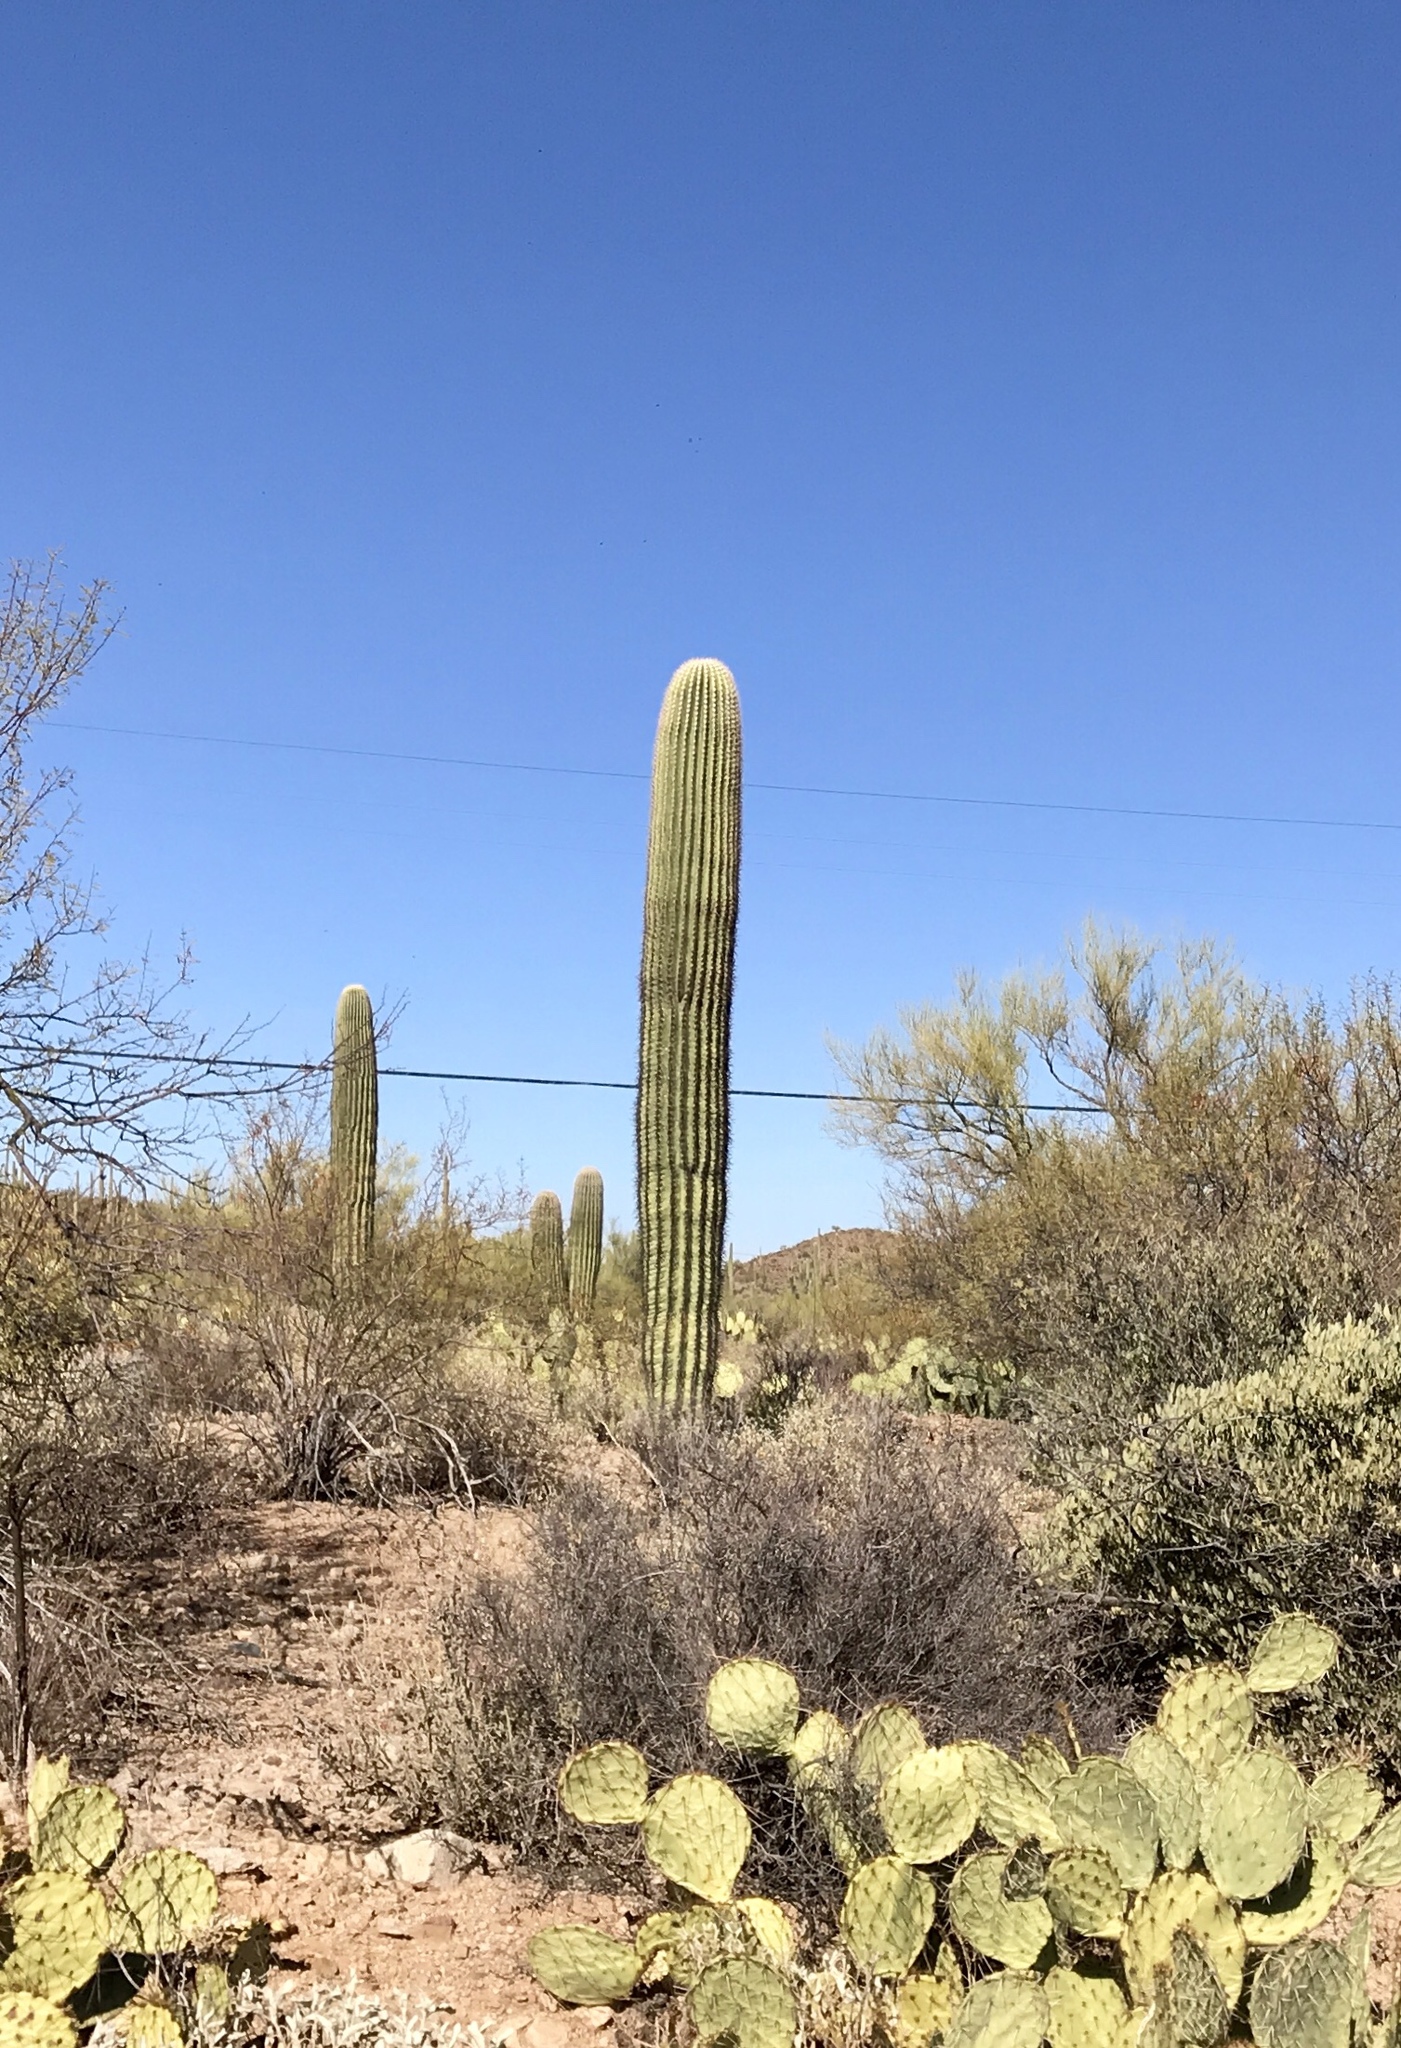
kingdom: Plantae
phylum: Tracheophyta
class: Magnoliopsida
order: Caryophyllales
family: Cactaceae
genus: Carnegiea
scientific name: Carnegiea gigantea
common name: Saguaro
